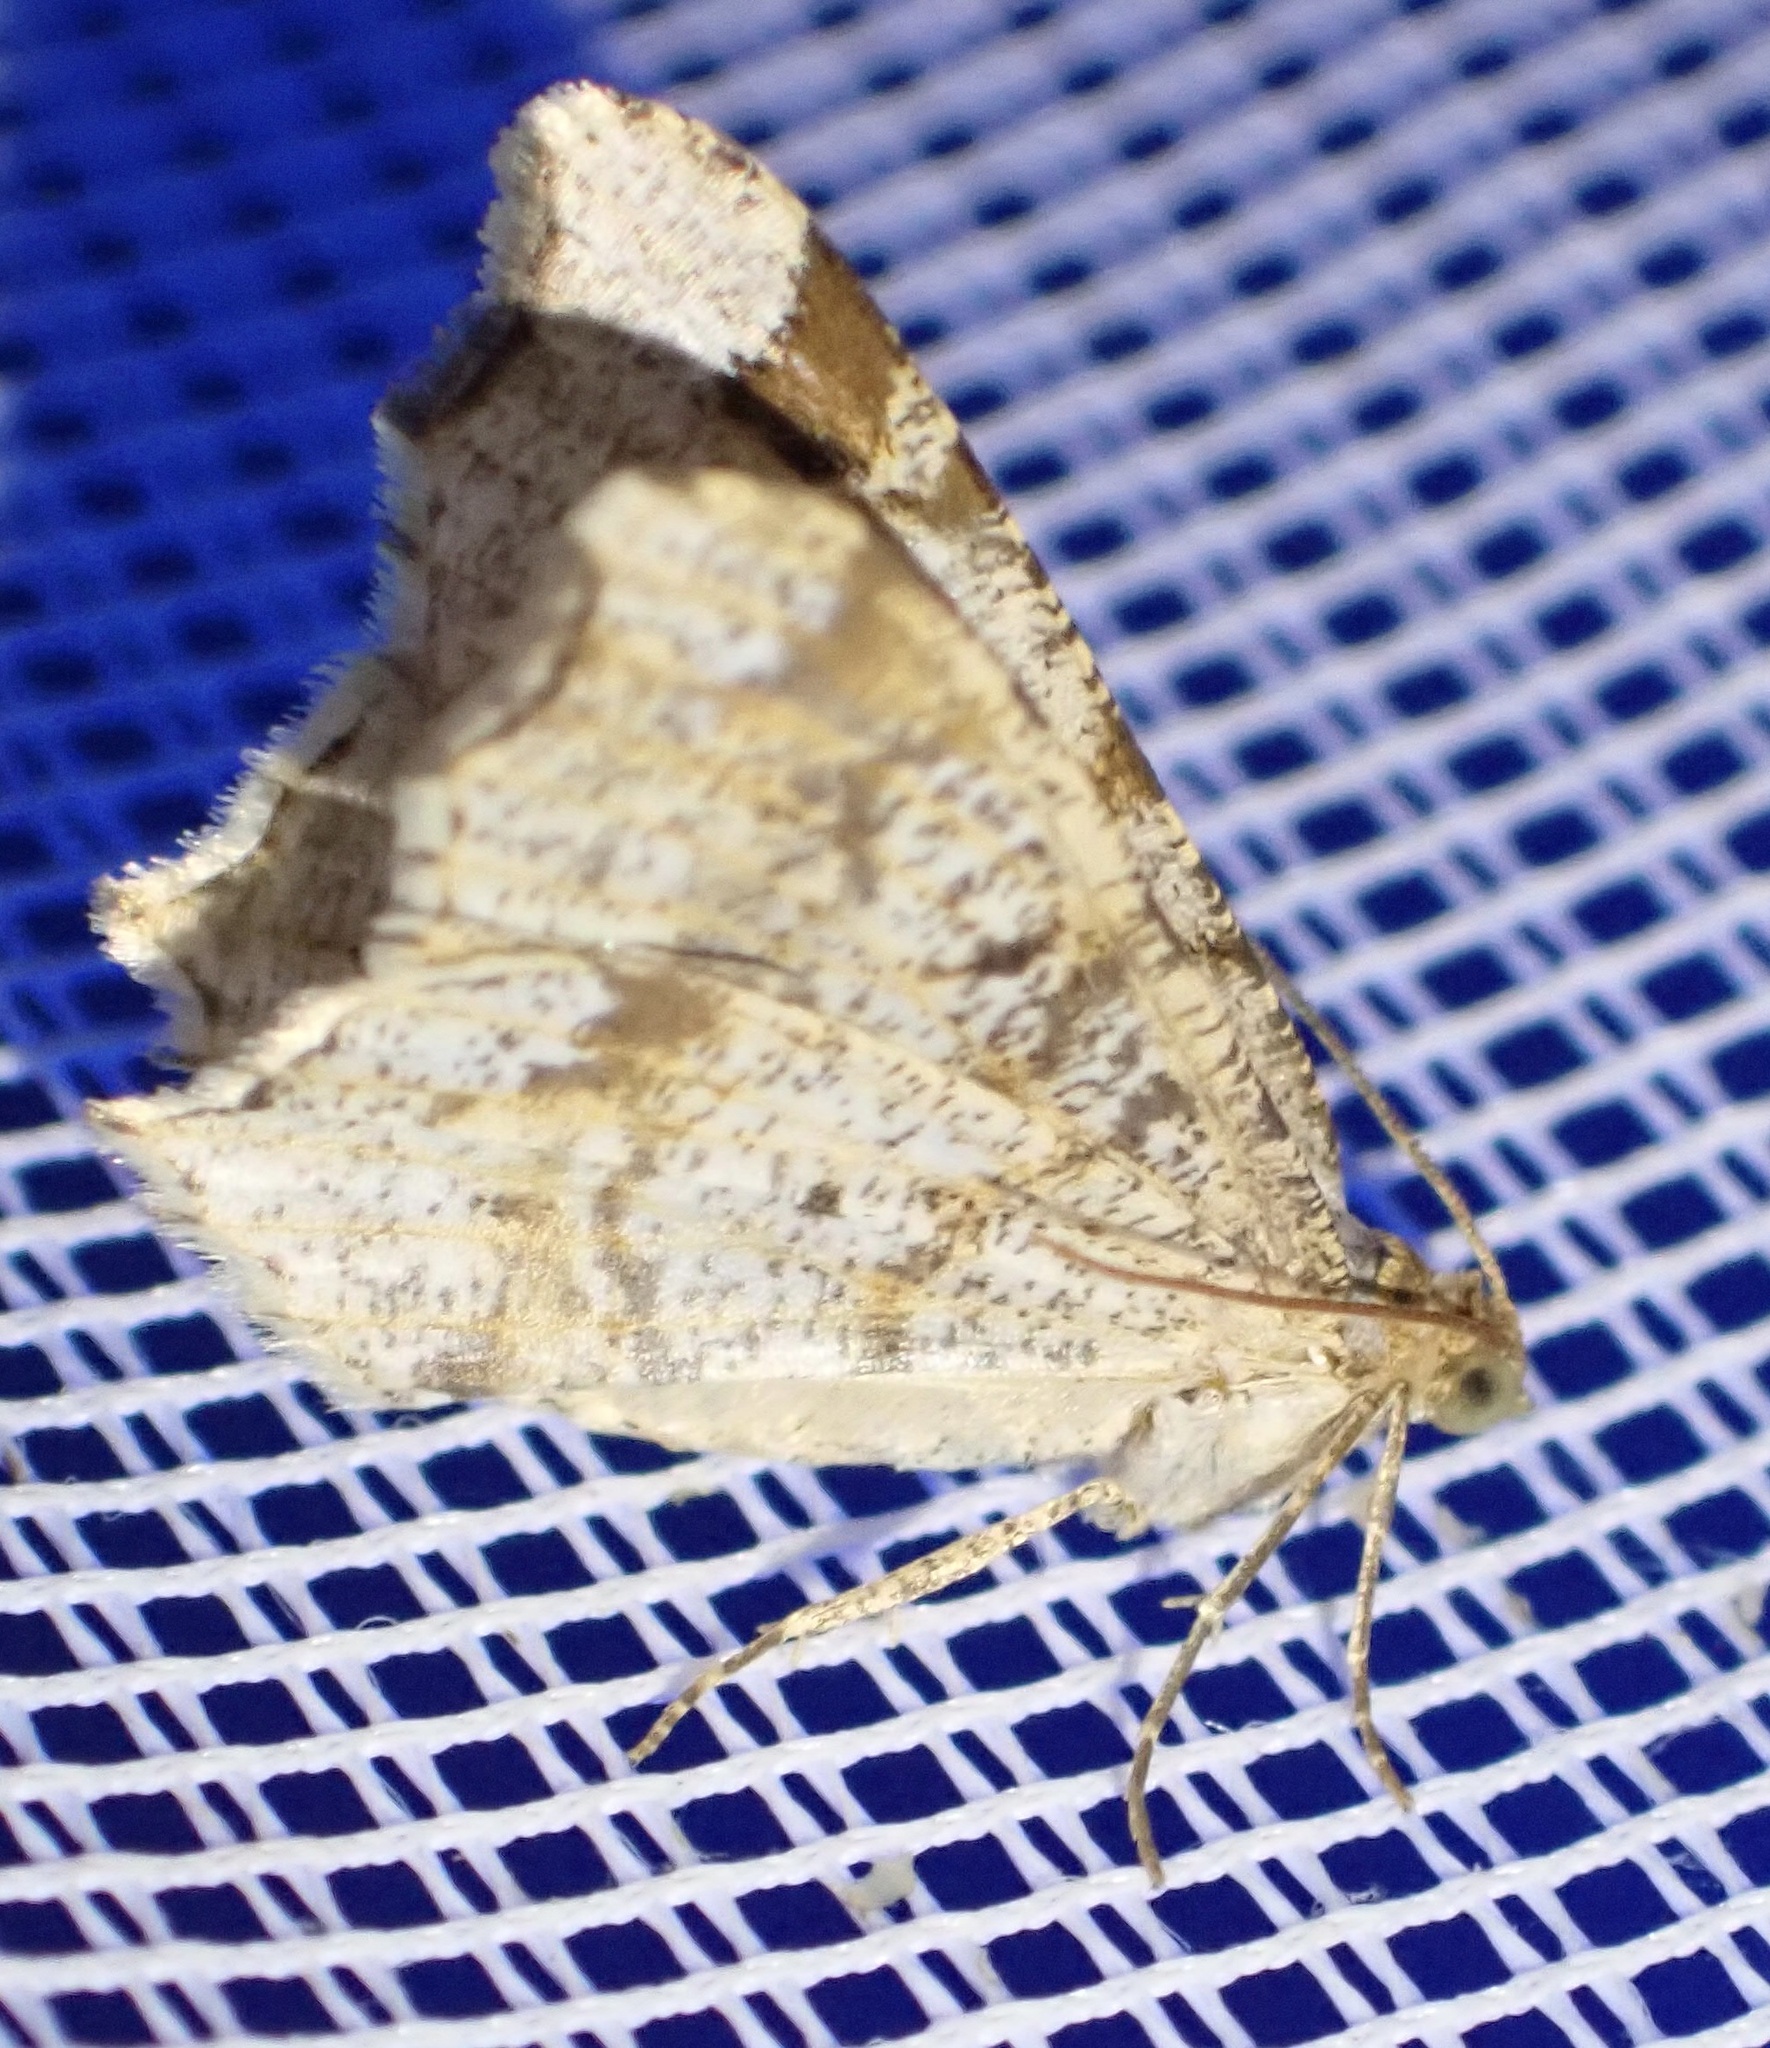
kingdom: Animalia
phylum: Arthropoda
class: Insecta
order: Lepidoptera
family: Geometridae
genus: Macaria
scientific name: Macaria notata
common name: Peacock moth
